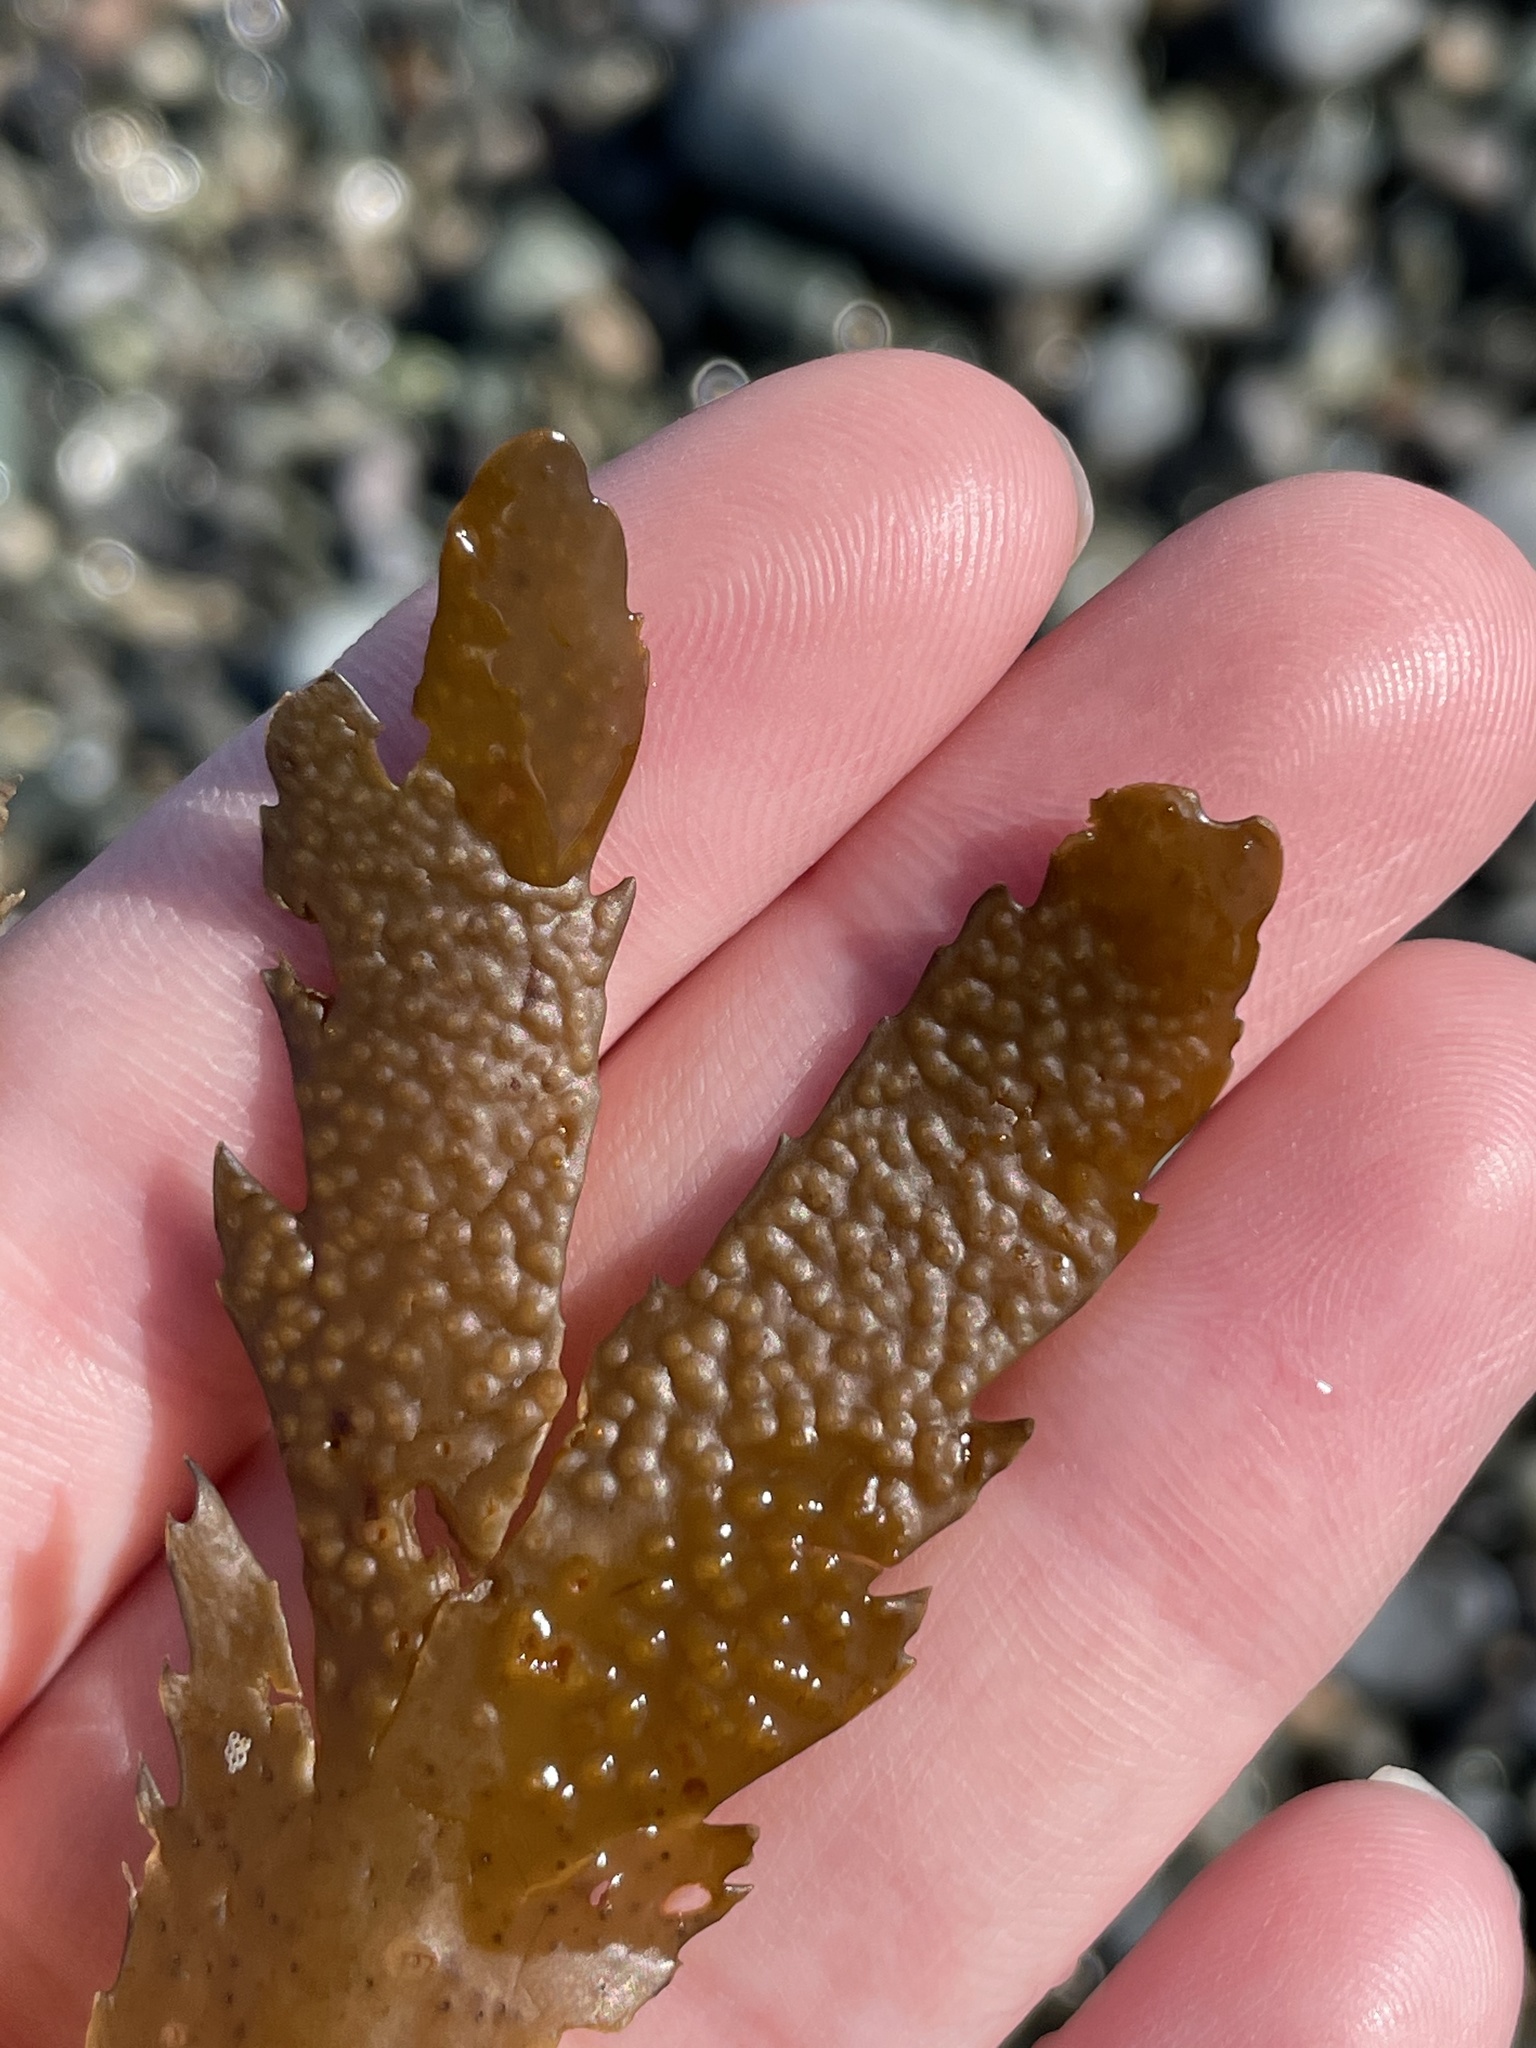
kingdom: Chromista
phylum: Ochrophyta
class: Phaeophyceae
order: Fucales
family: Fucaceae
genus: Fucus
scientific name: Fucus serratus
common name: Toothed wrack
